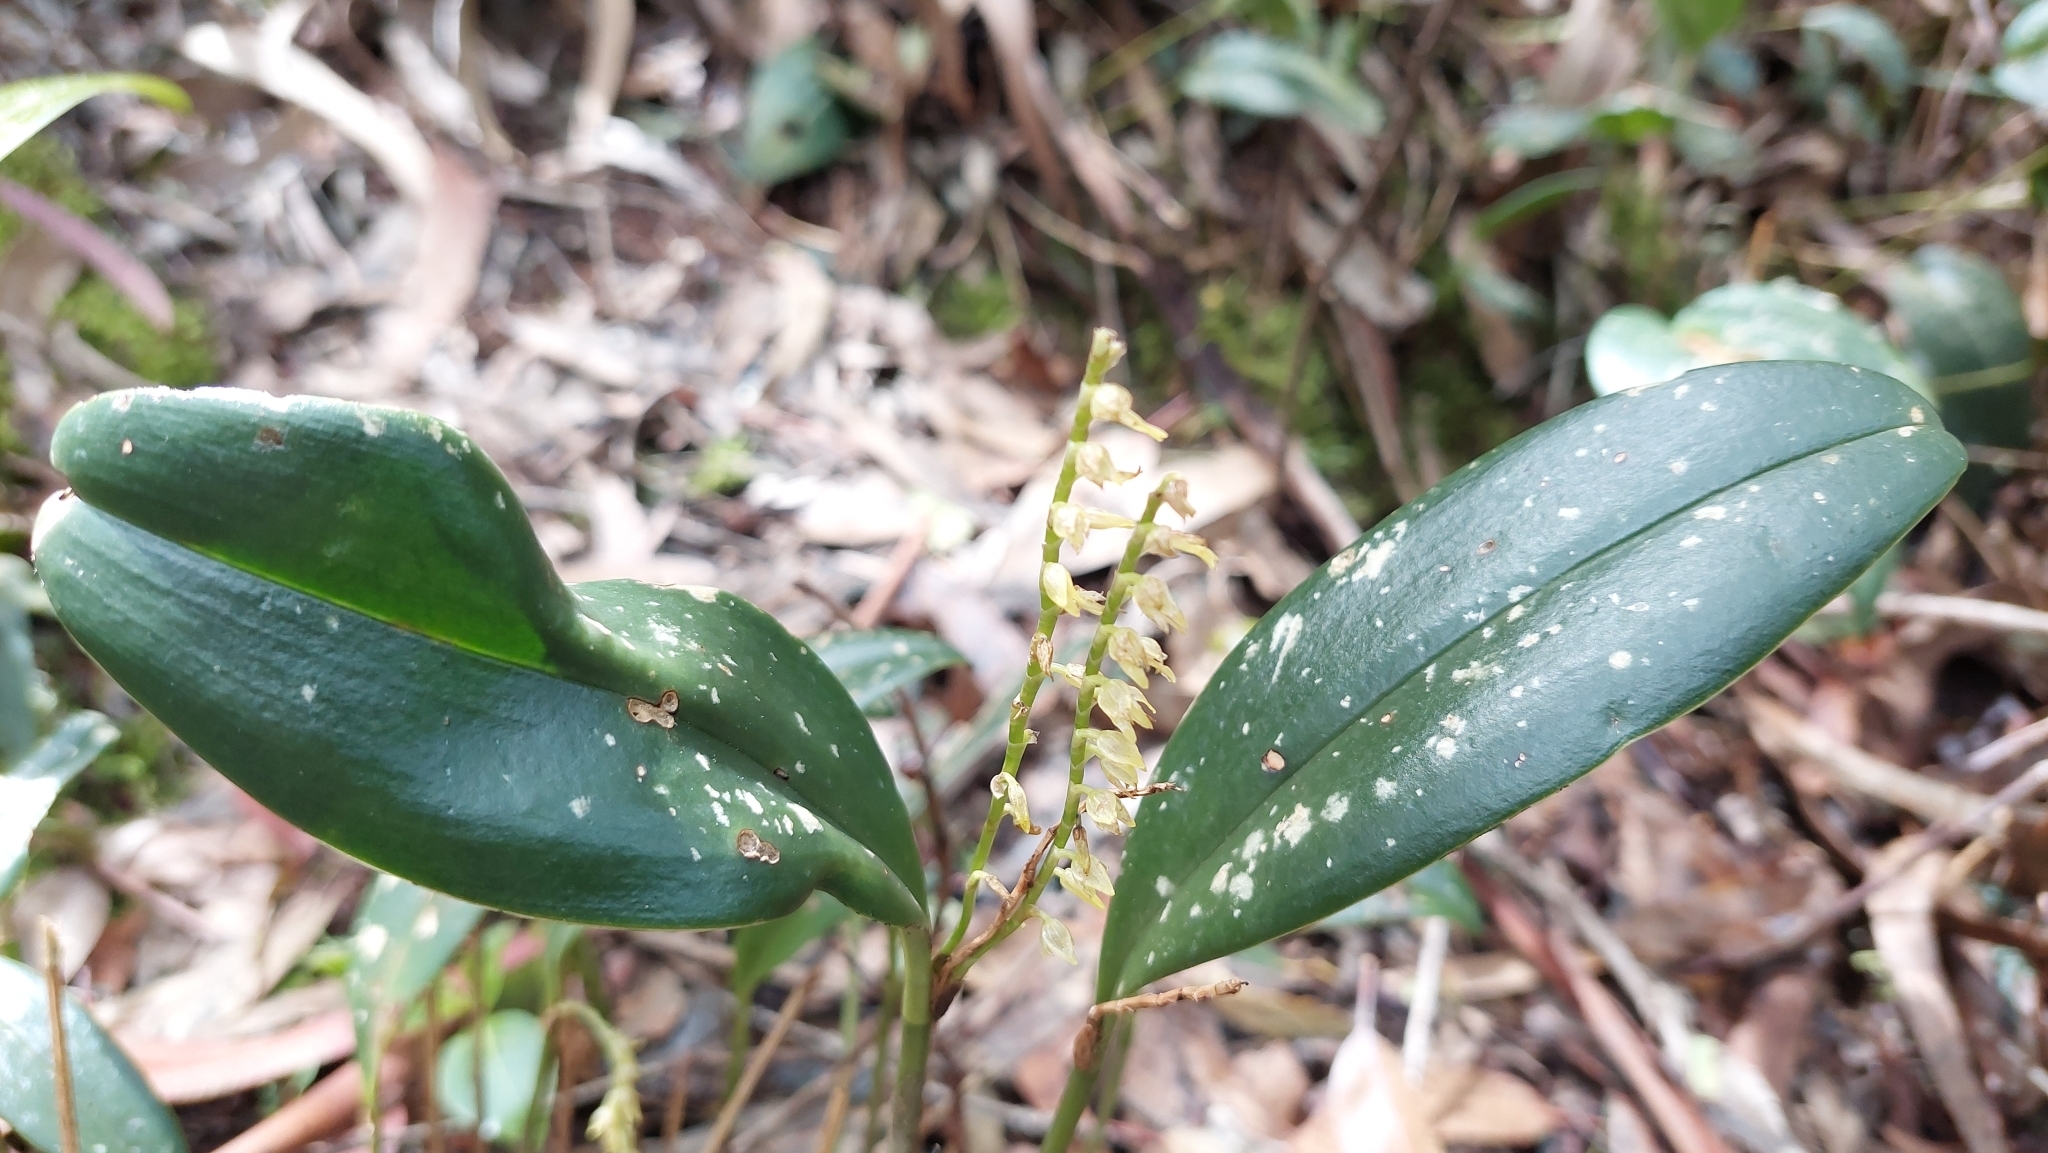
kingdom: Plantae
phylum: Tracheophyta
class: Liliopsida
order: Asparagales
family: Orchidaceae
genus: Pleurothallis
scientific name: Pleurothallis phalangifera
